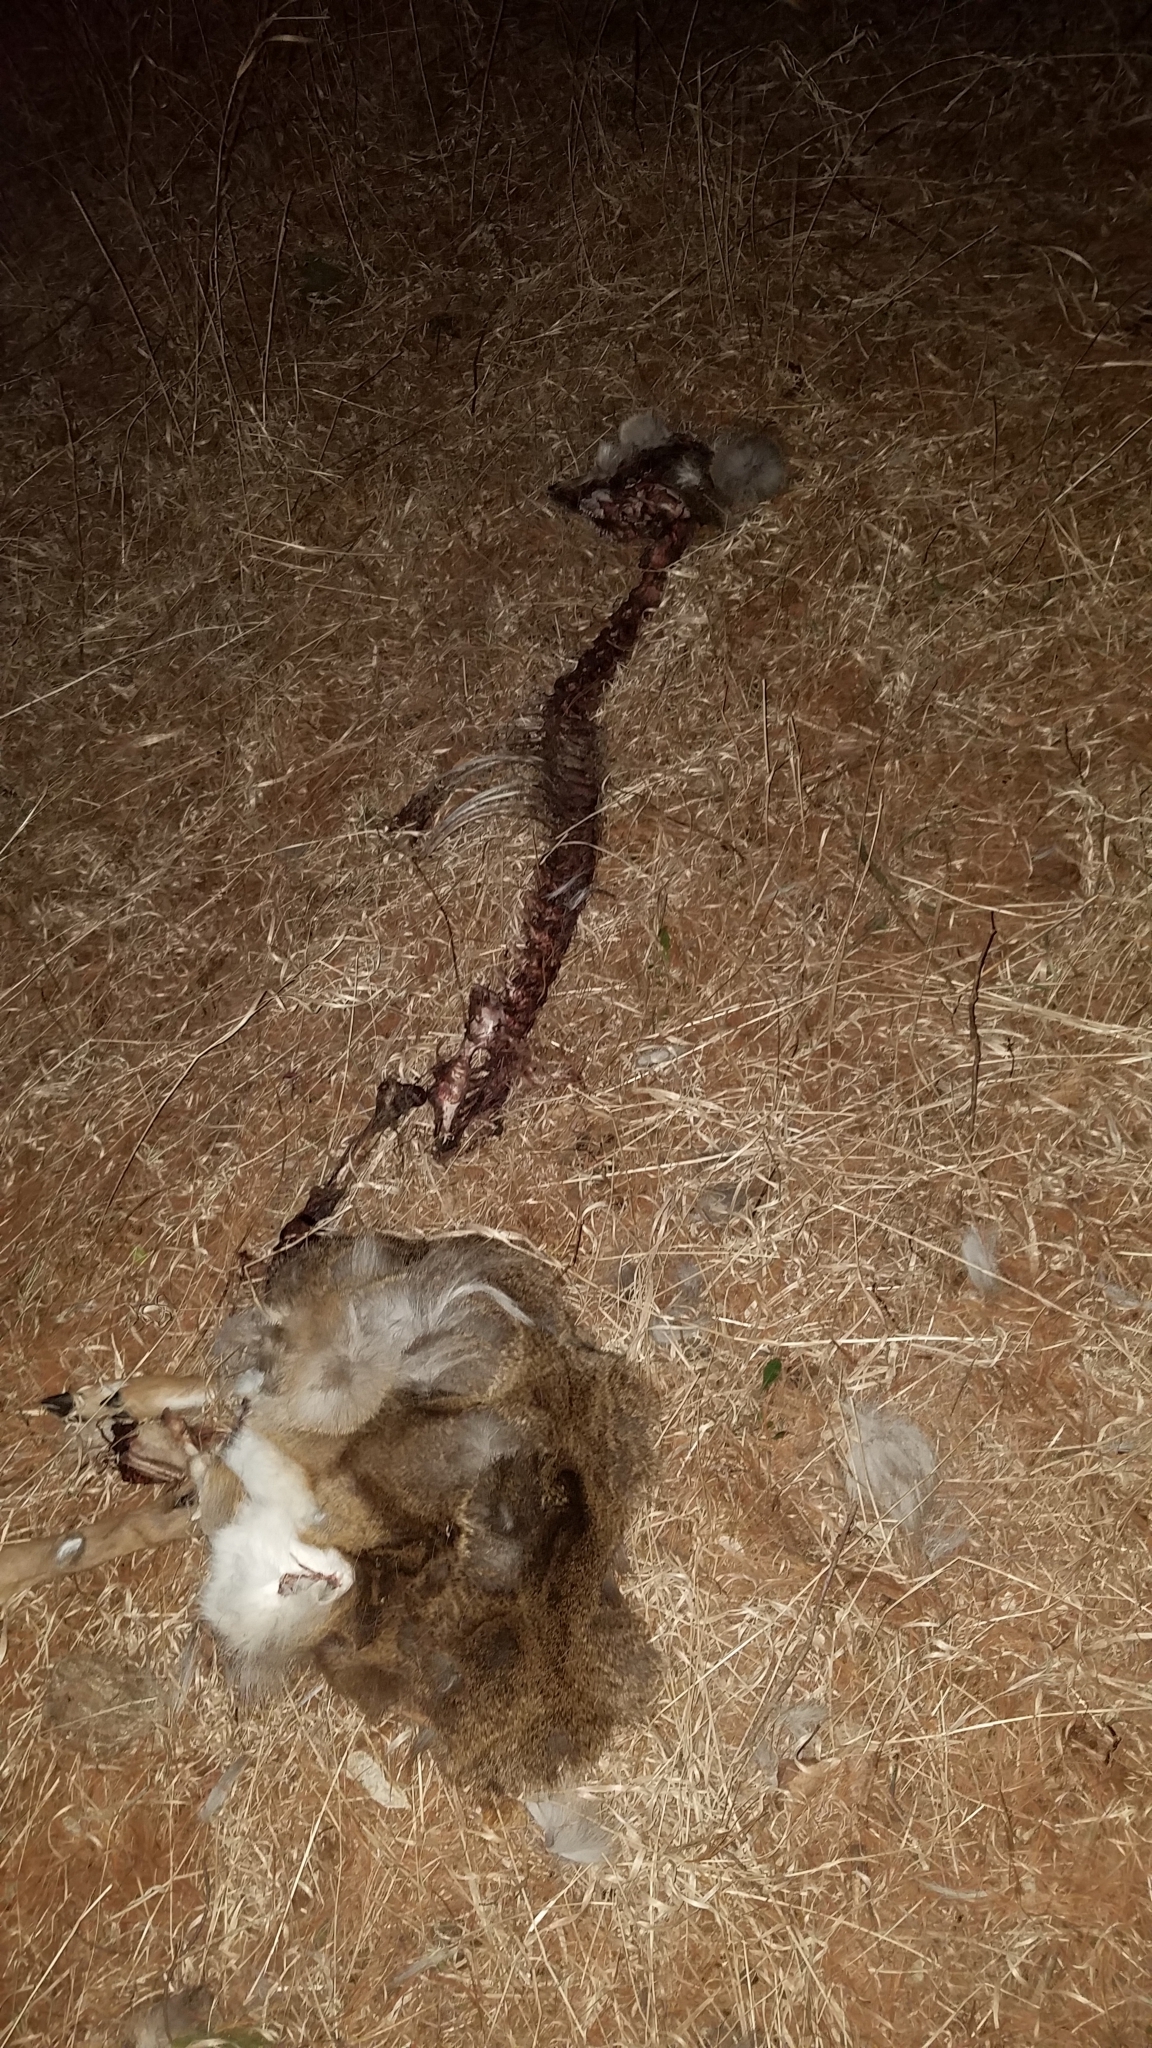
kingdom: Animalia
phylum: Chordata
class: Mammalia
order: Artiodactyla
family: Cervidae
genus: Odocoileus
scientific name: Odocoileus virginianus
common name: White-tailed deer
